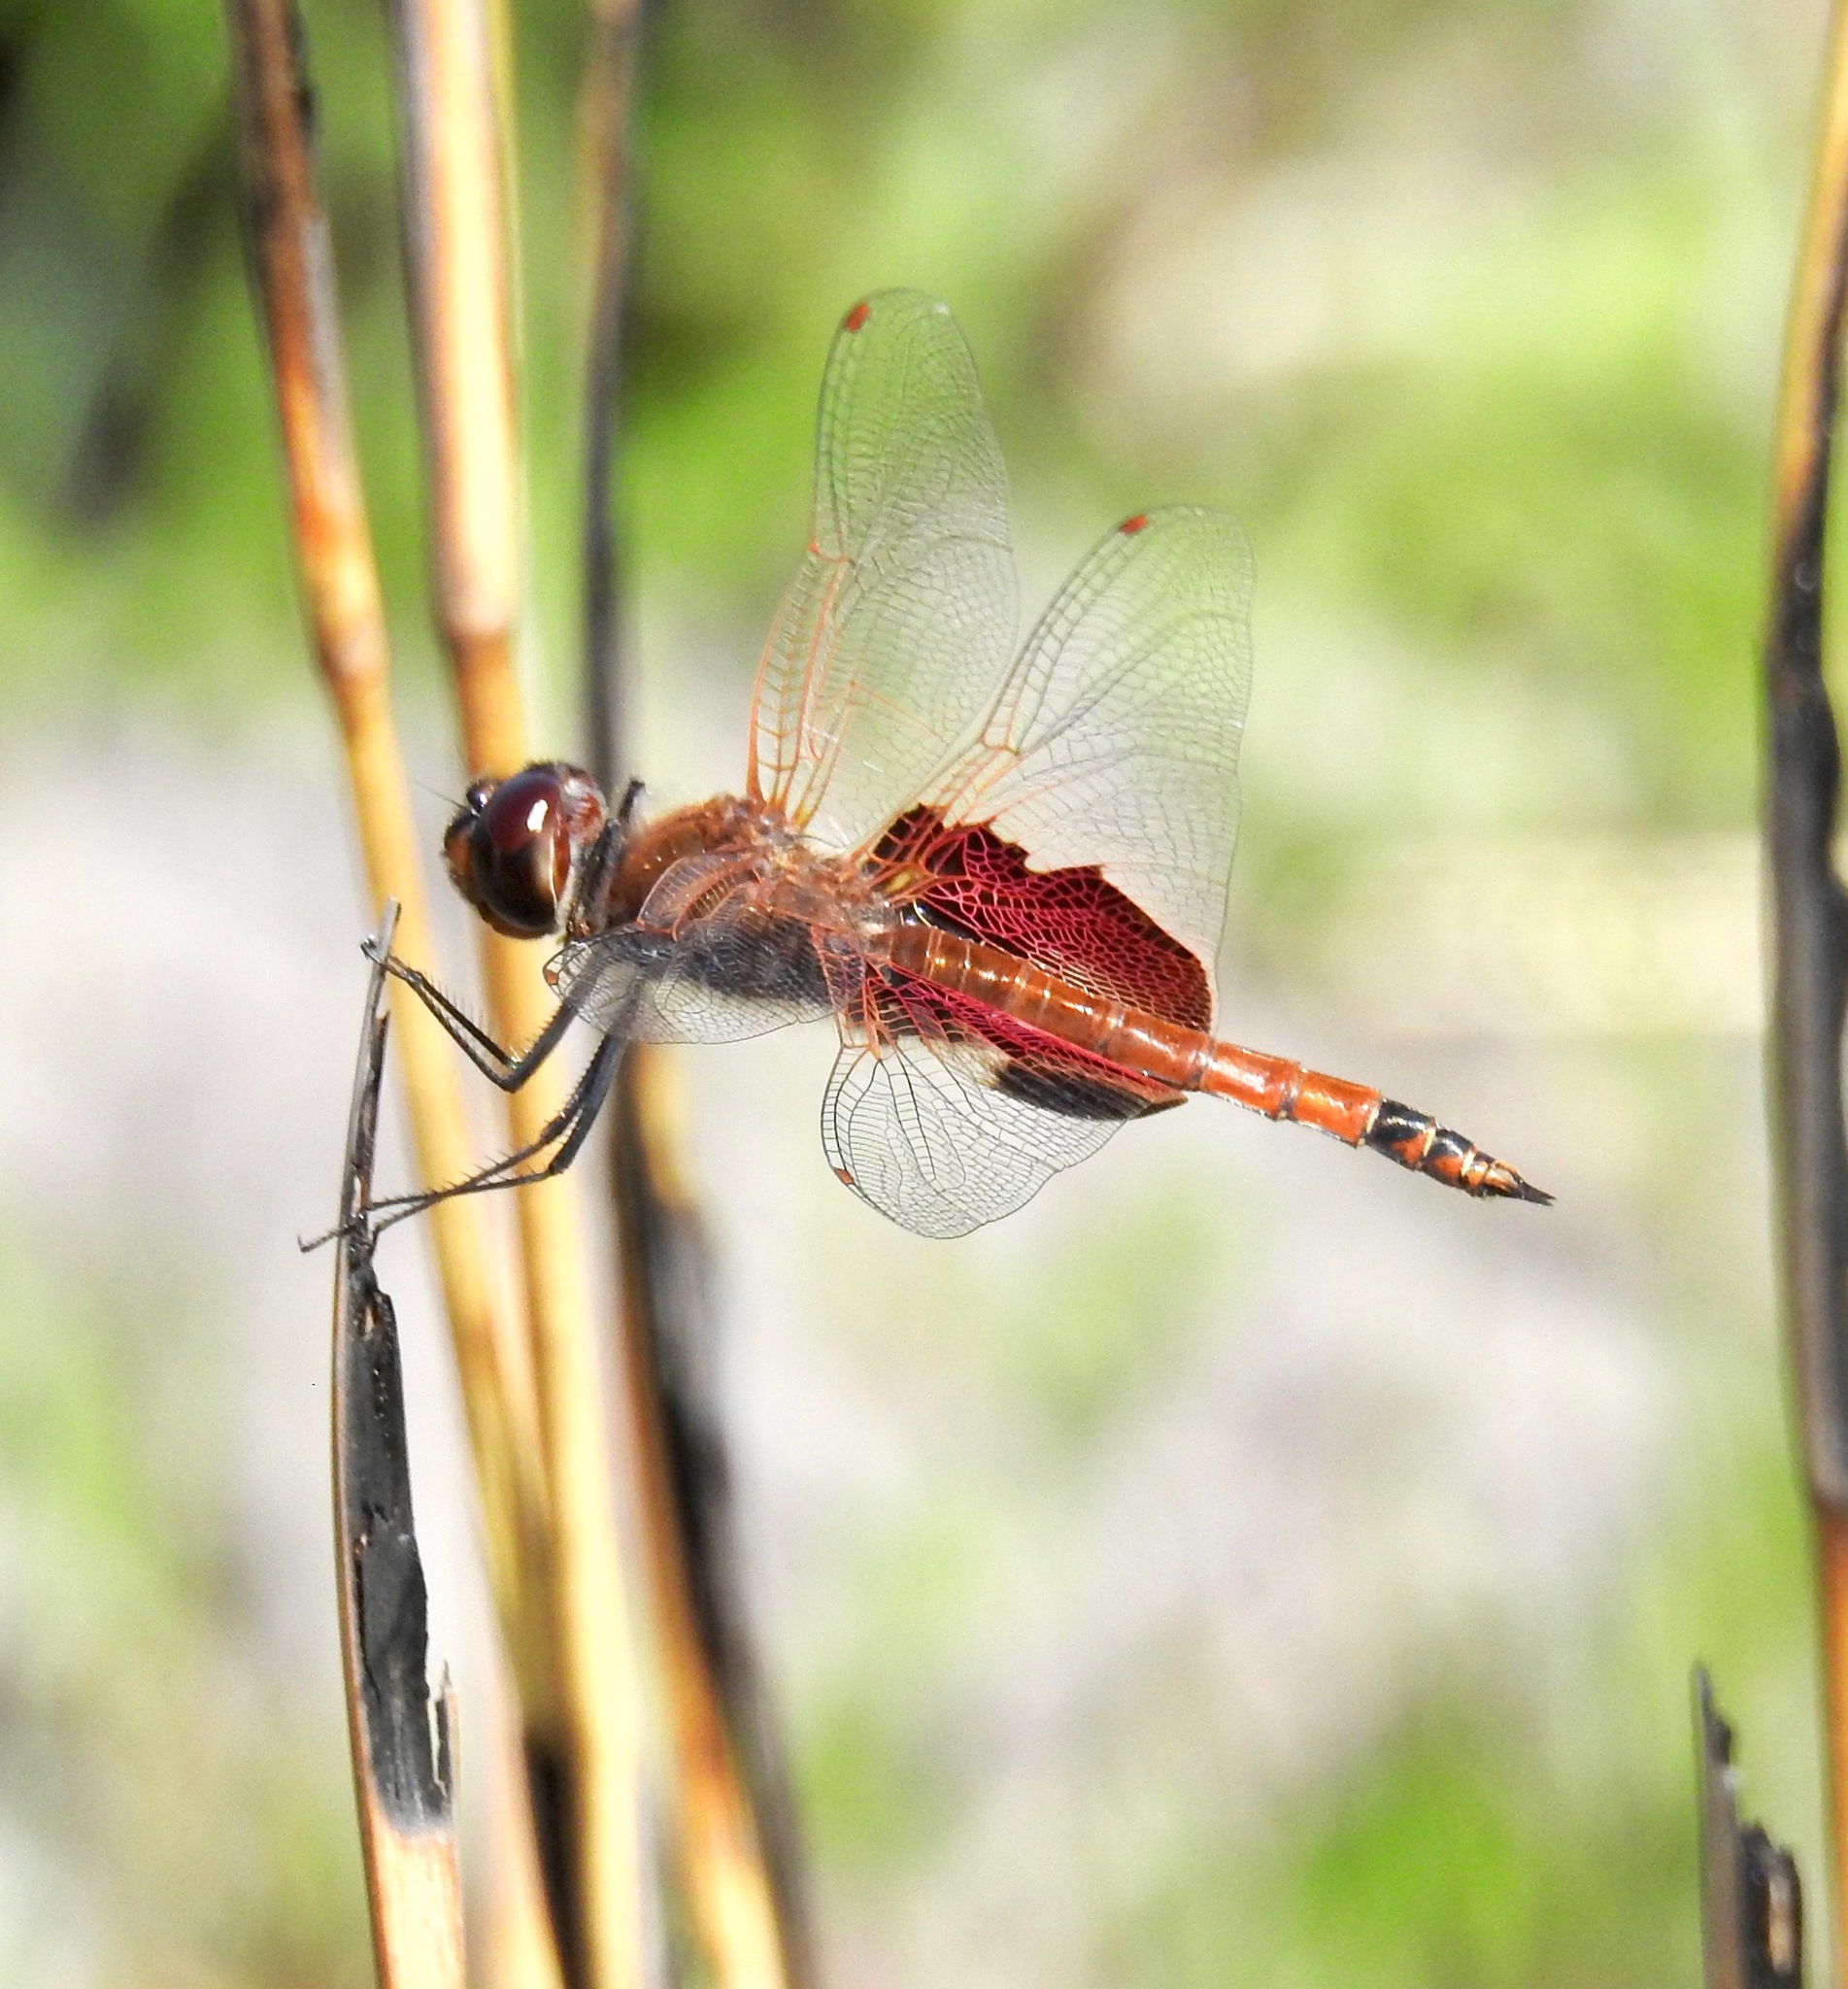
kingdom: Animalia
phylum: Arthropoda
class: Insecta
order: Odonata
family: Libellulidae
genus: Tramea
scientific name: Tramea carolina
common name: Carolina saddlebags
